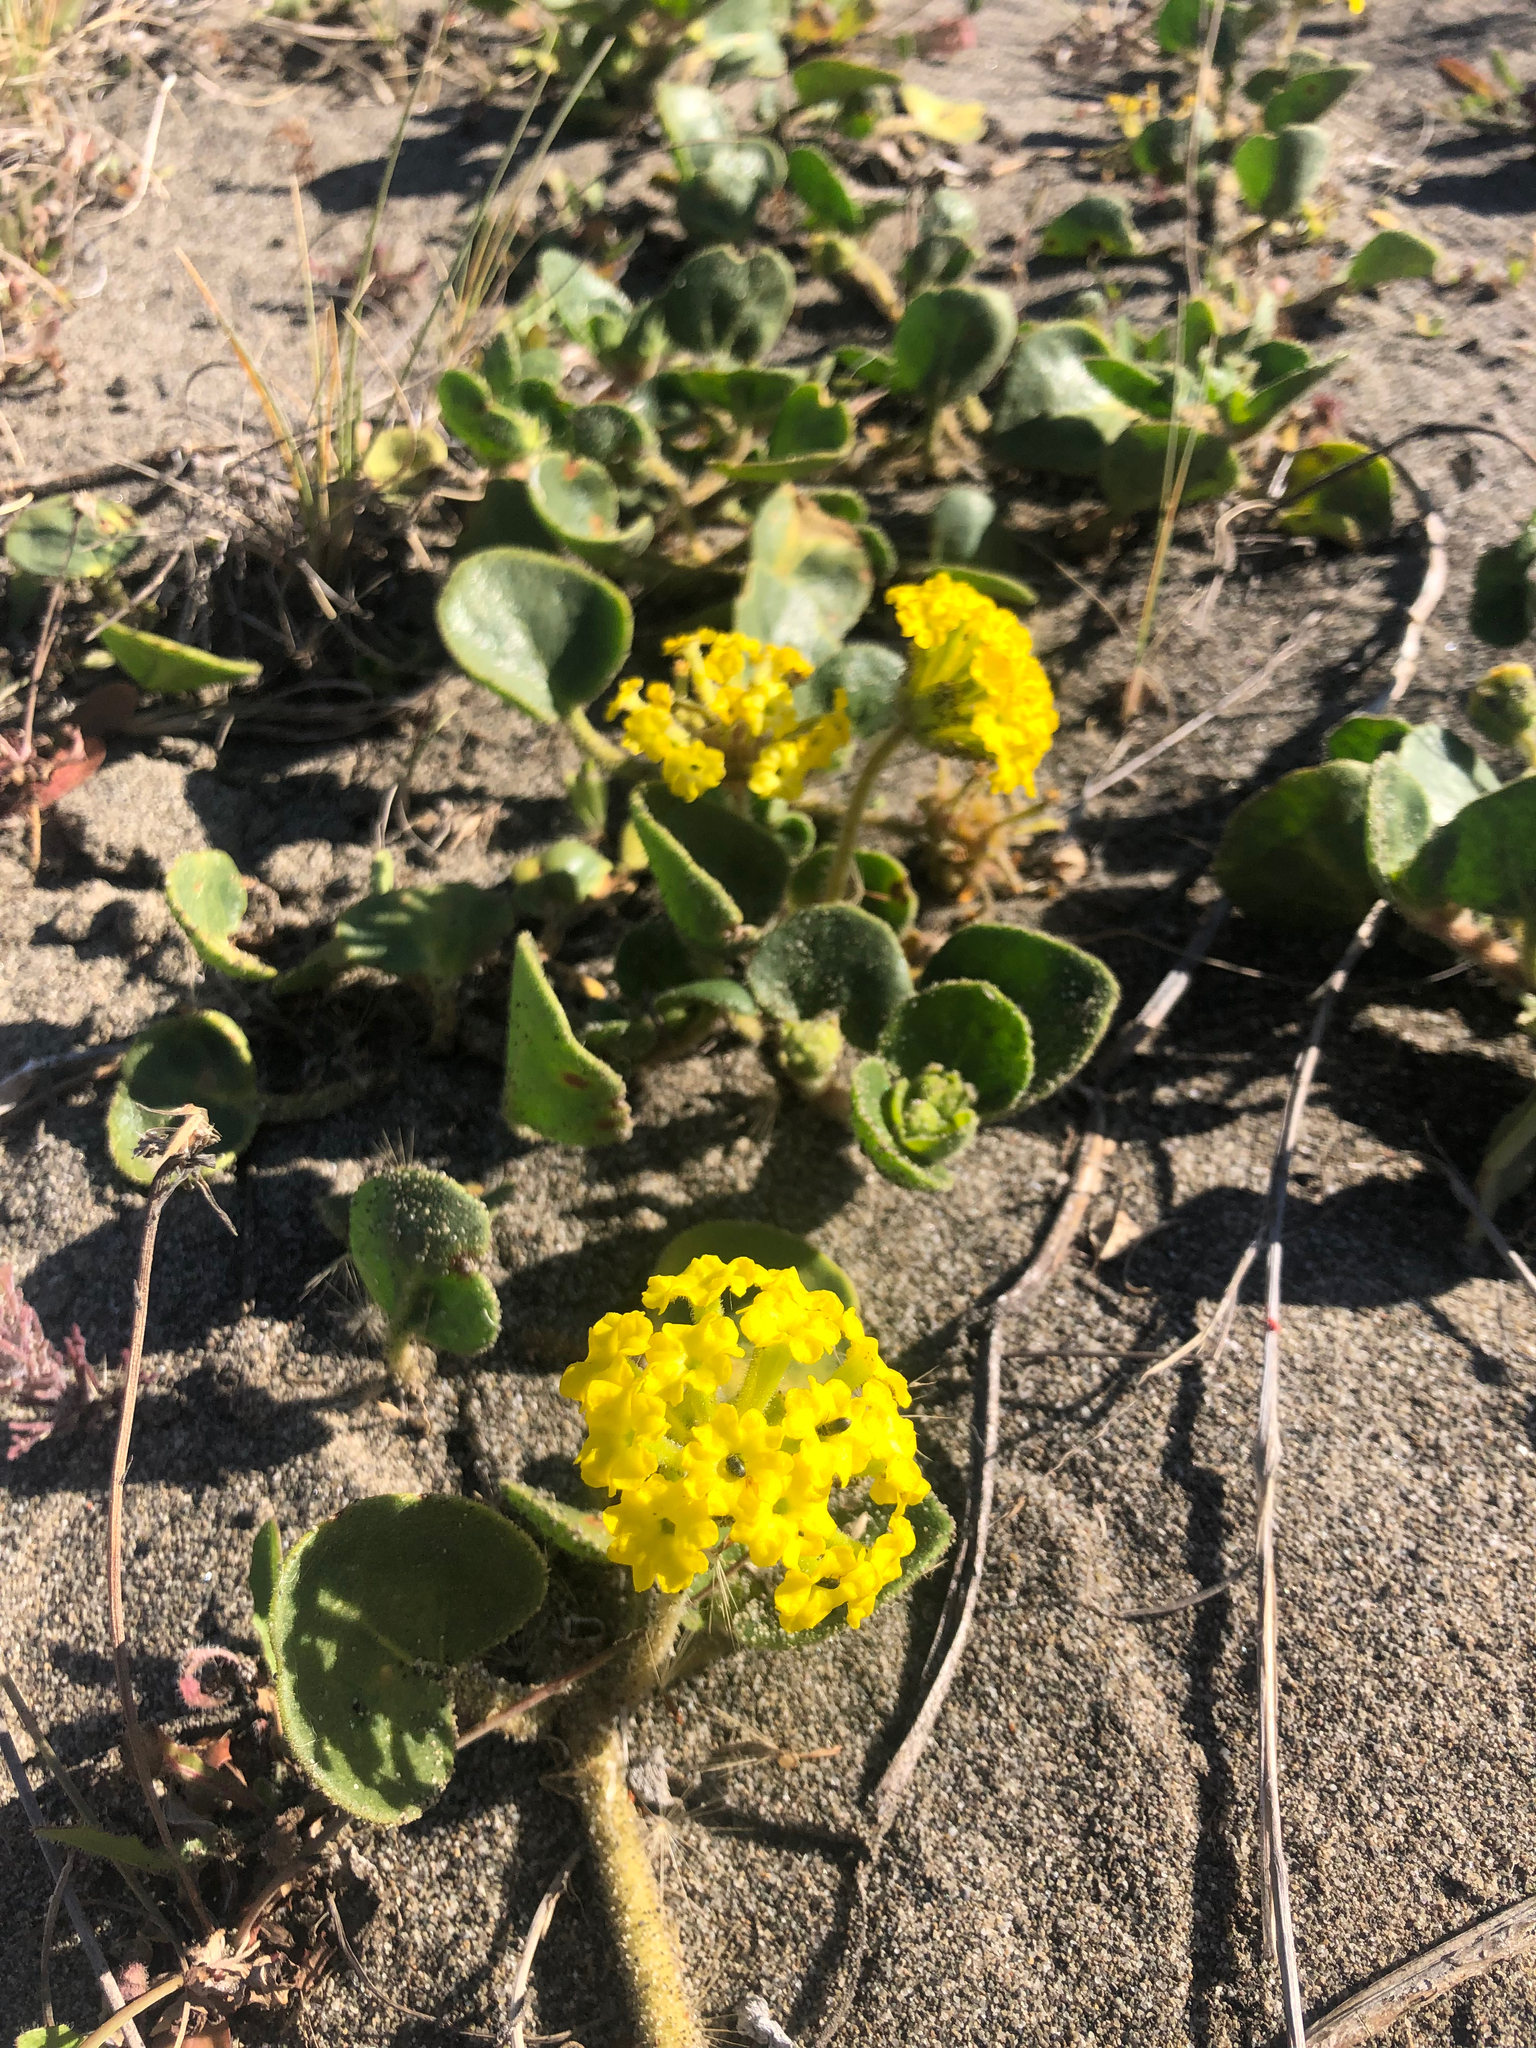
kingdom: Plantae
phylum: Tracheophyta
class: Magnoliopsida
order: Caryophyllales
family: Nyctaginaceae
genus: Abronia
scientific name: Abronia latifolia
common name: Yellow sand-verbena
